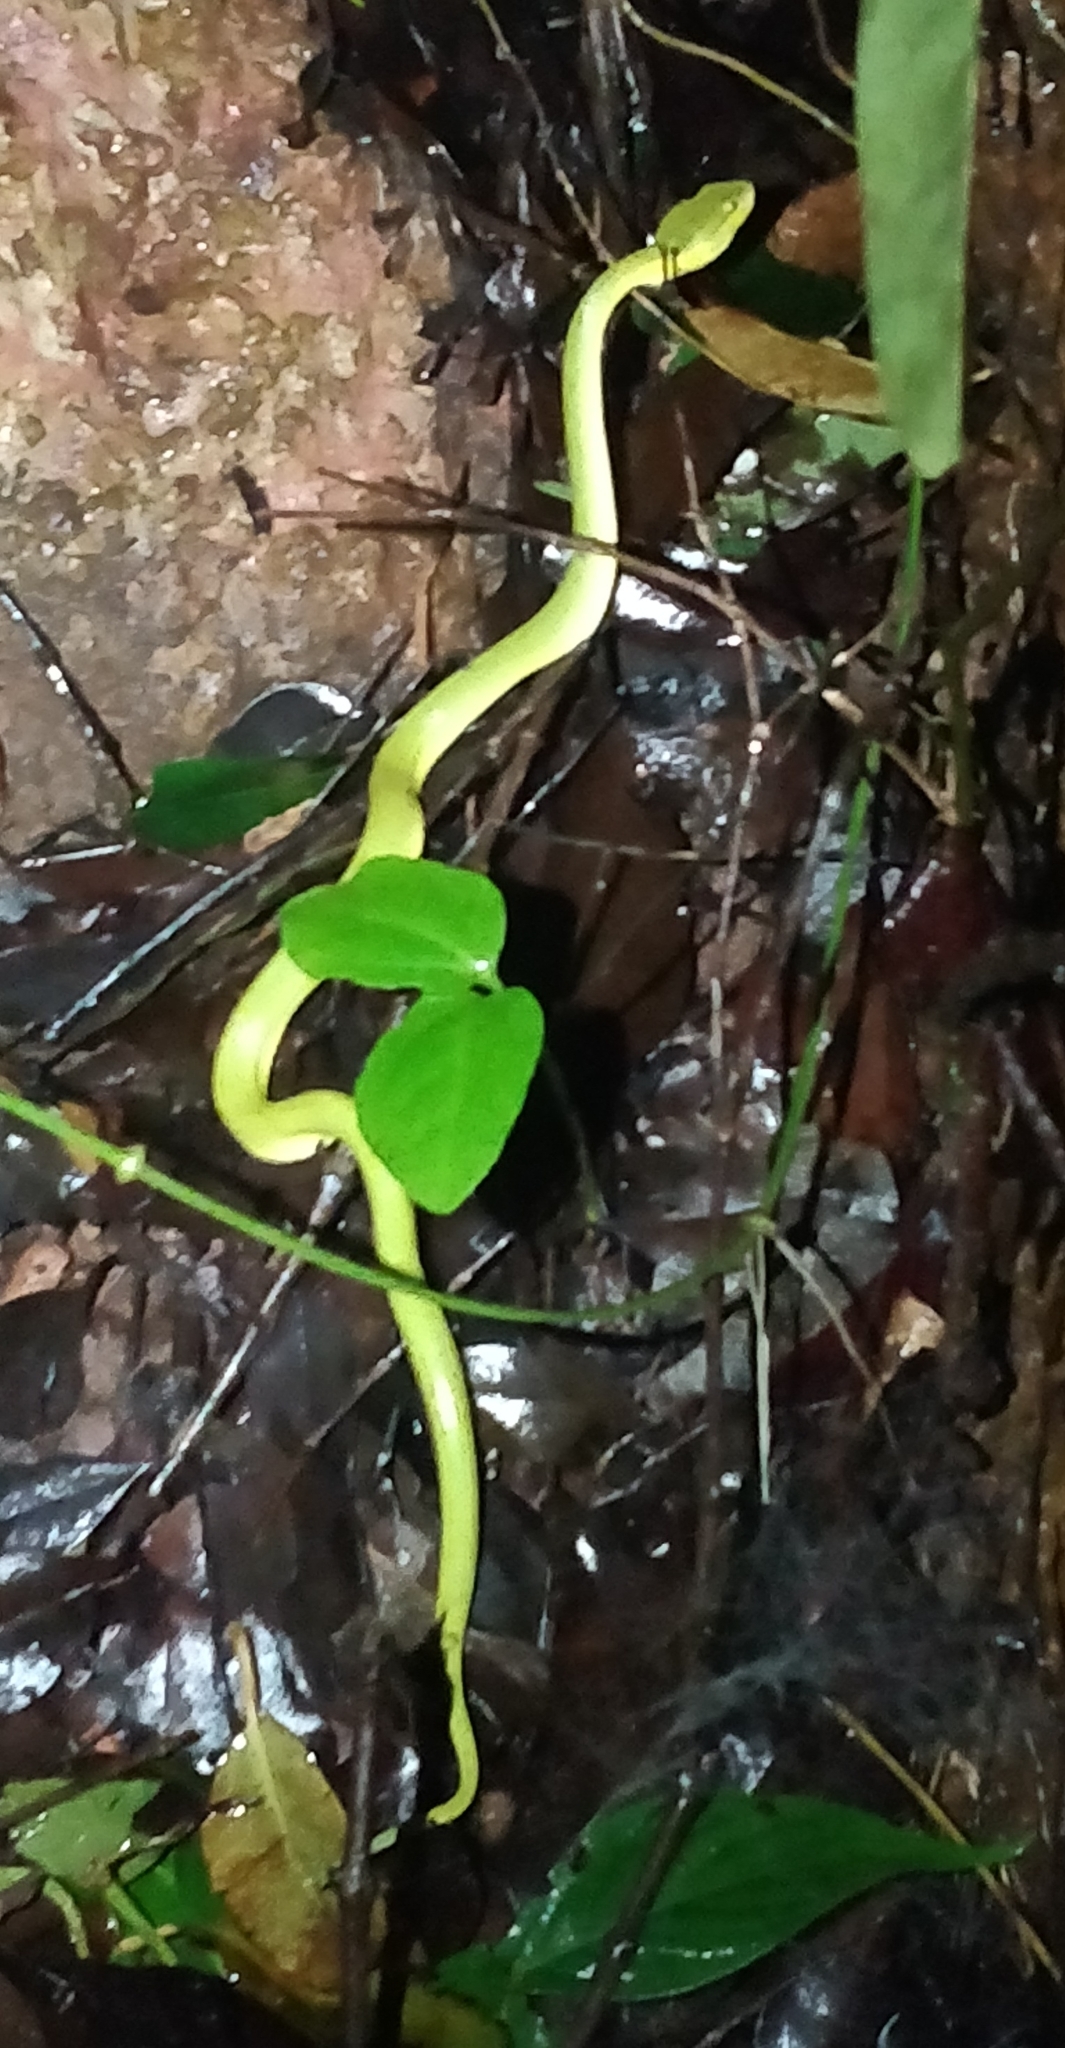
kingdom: Animalia
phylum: Chordata
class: Squamata
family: Viperidae
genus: Craspedocephalus
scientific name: Craspedocephalus gramineus
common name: Common bamboo viper
